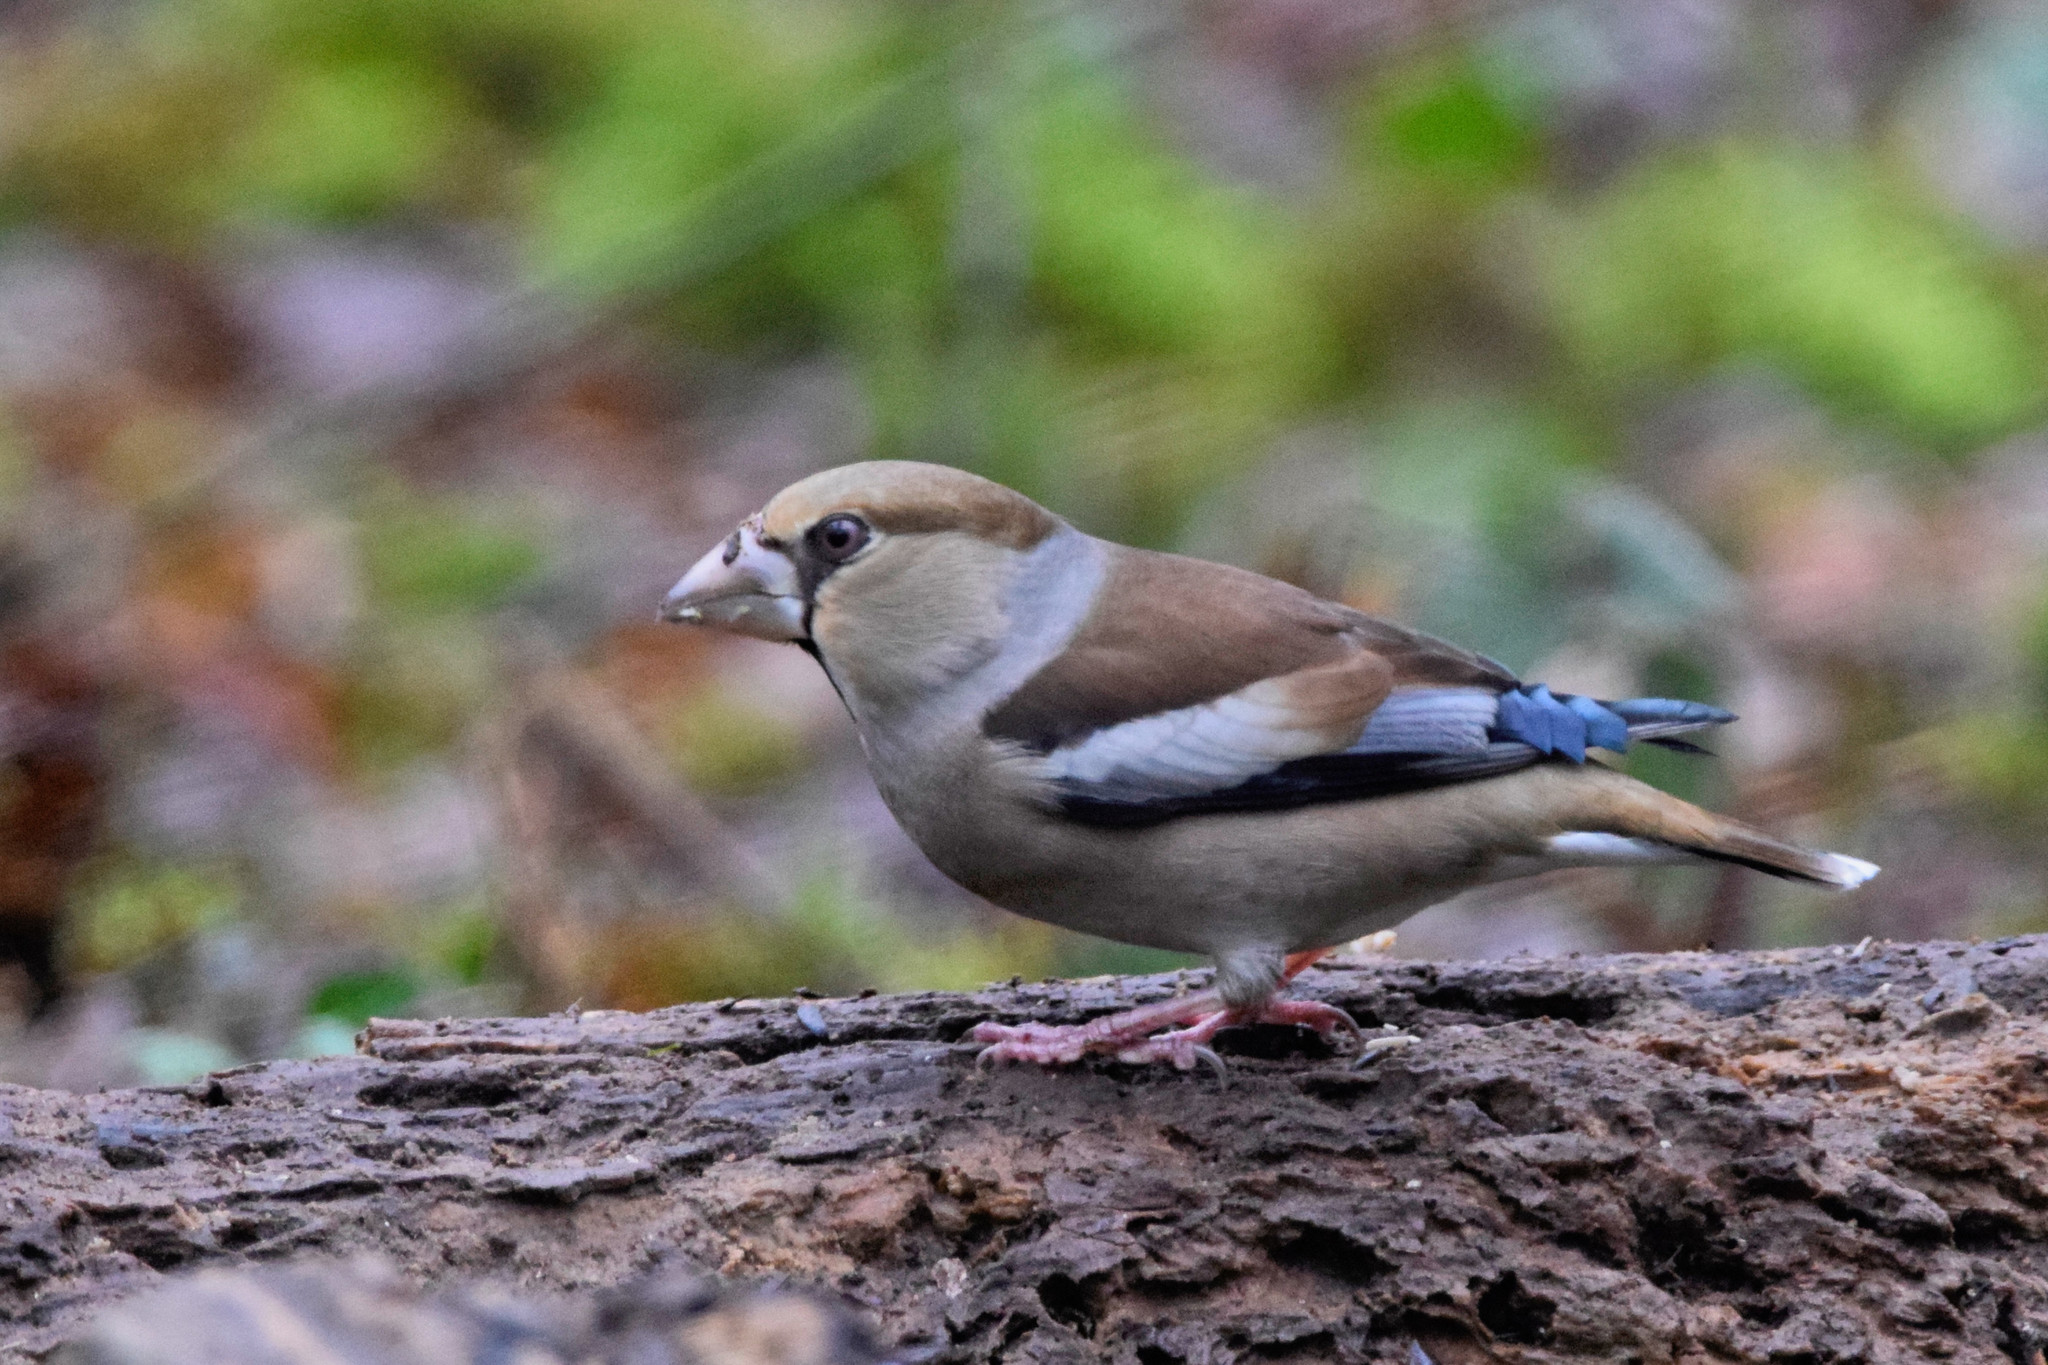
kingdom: Animalia
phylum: Chordata
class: Aves
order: Passeriformes
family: Fringillidae
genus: Coccothraustes
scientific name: Coccothraustes coccothraustes
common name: Hawfinch
